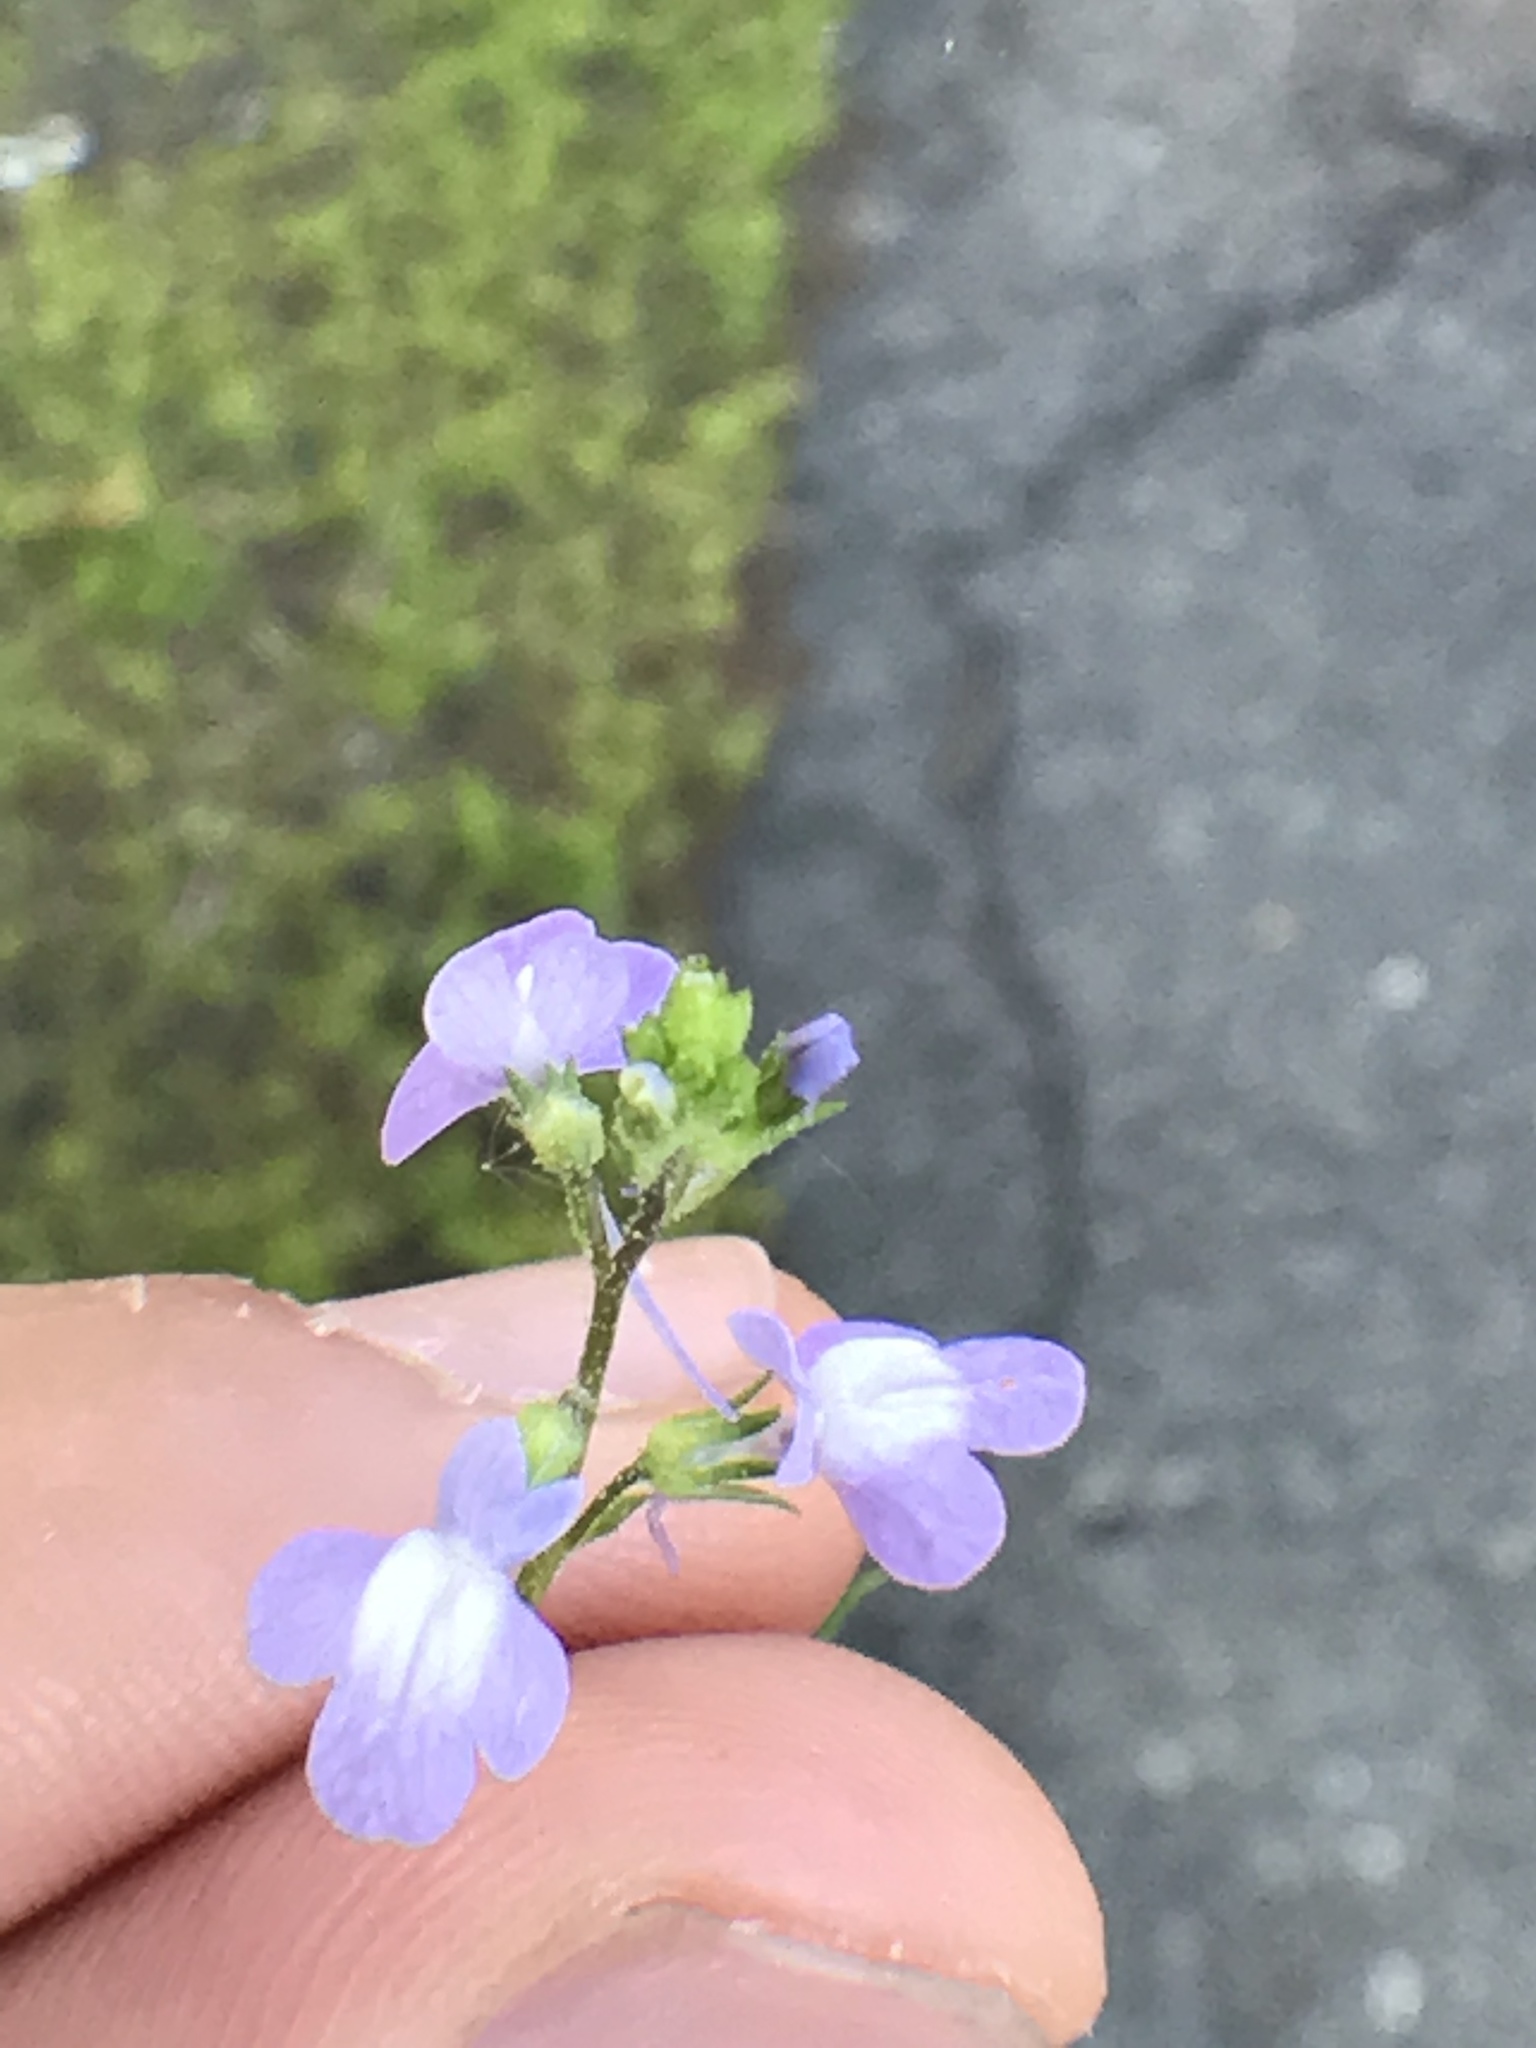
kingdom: Plantae
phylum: Tracheophyta
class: Magnoliopsida
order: Lamiales
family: Plantaginaceae
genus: Nuttallanthus
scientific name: Nuttallanthus canadensis
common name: Blue toadflax
